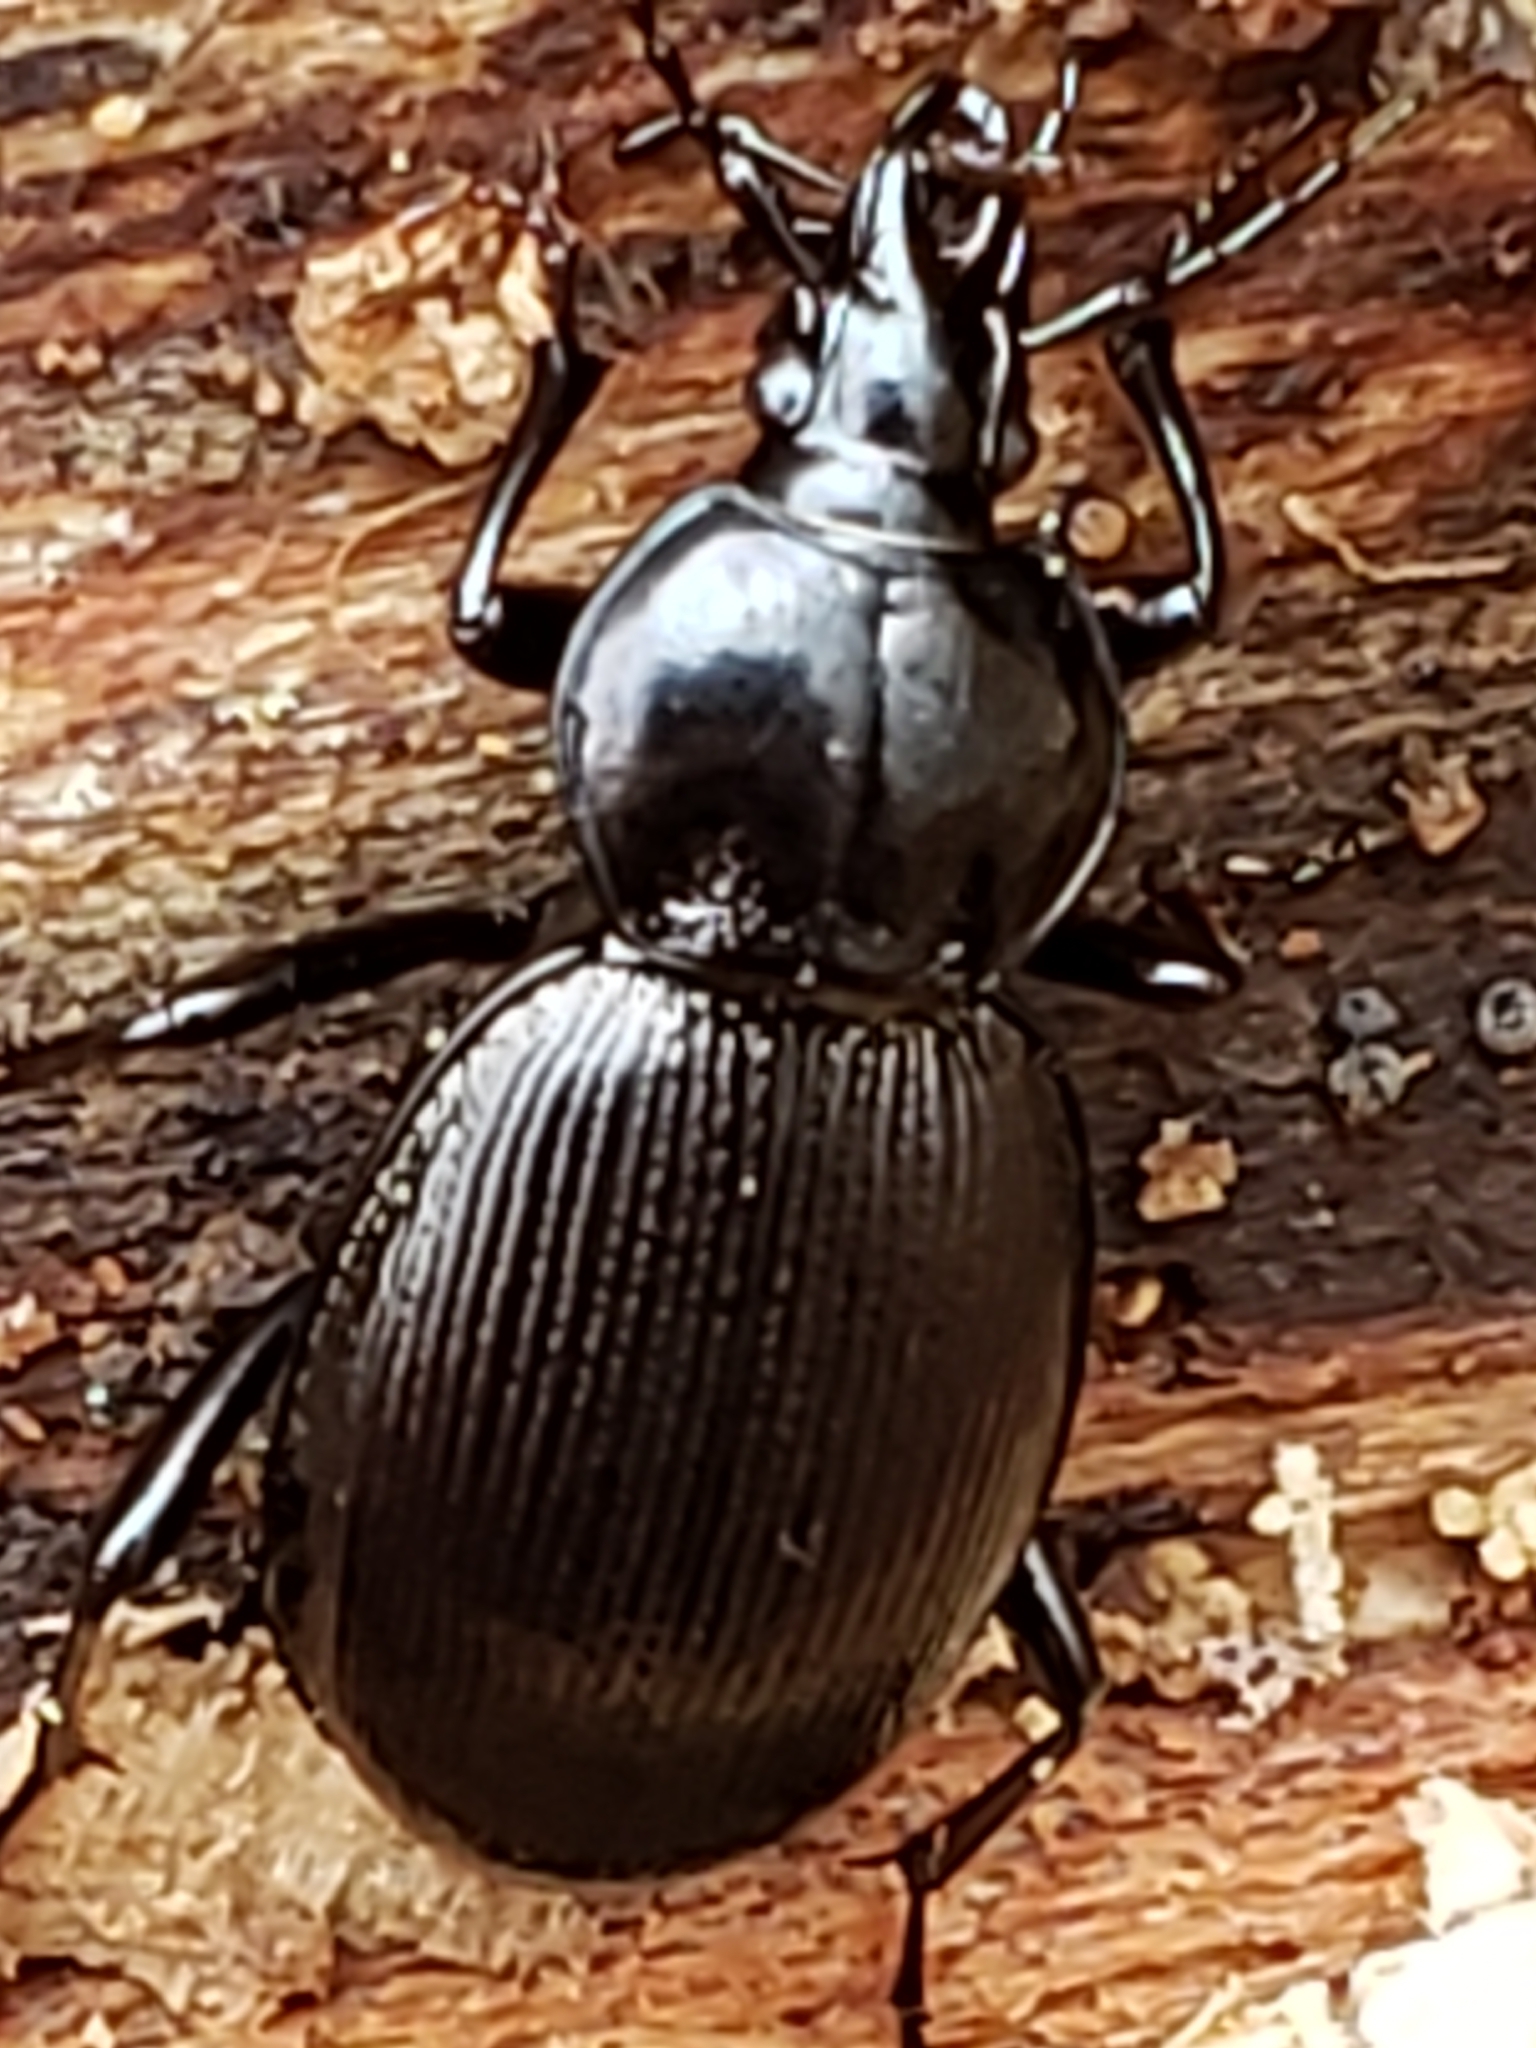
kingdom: Animalia
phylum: Arthropoda
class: Insecta
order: Coleoptera
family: Carabidae
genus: Sphaeroderus
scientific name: Sphaeroderus stenostomus
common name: Small snail-eating ground beetle
